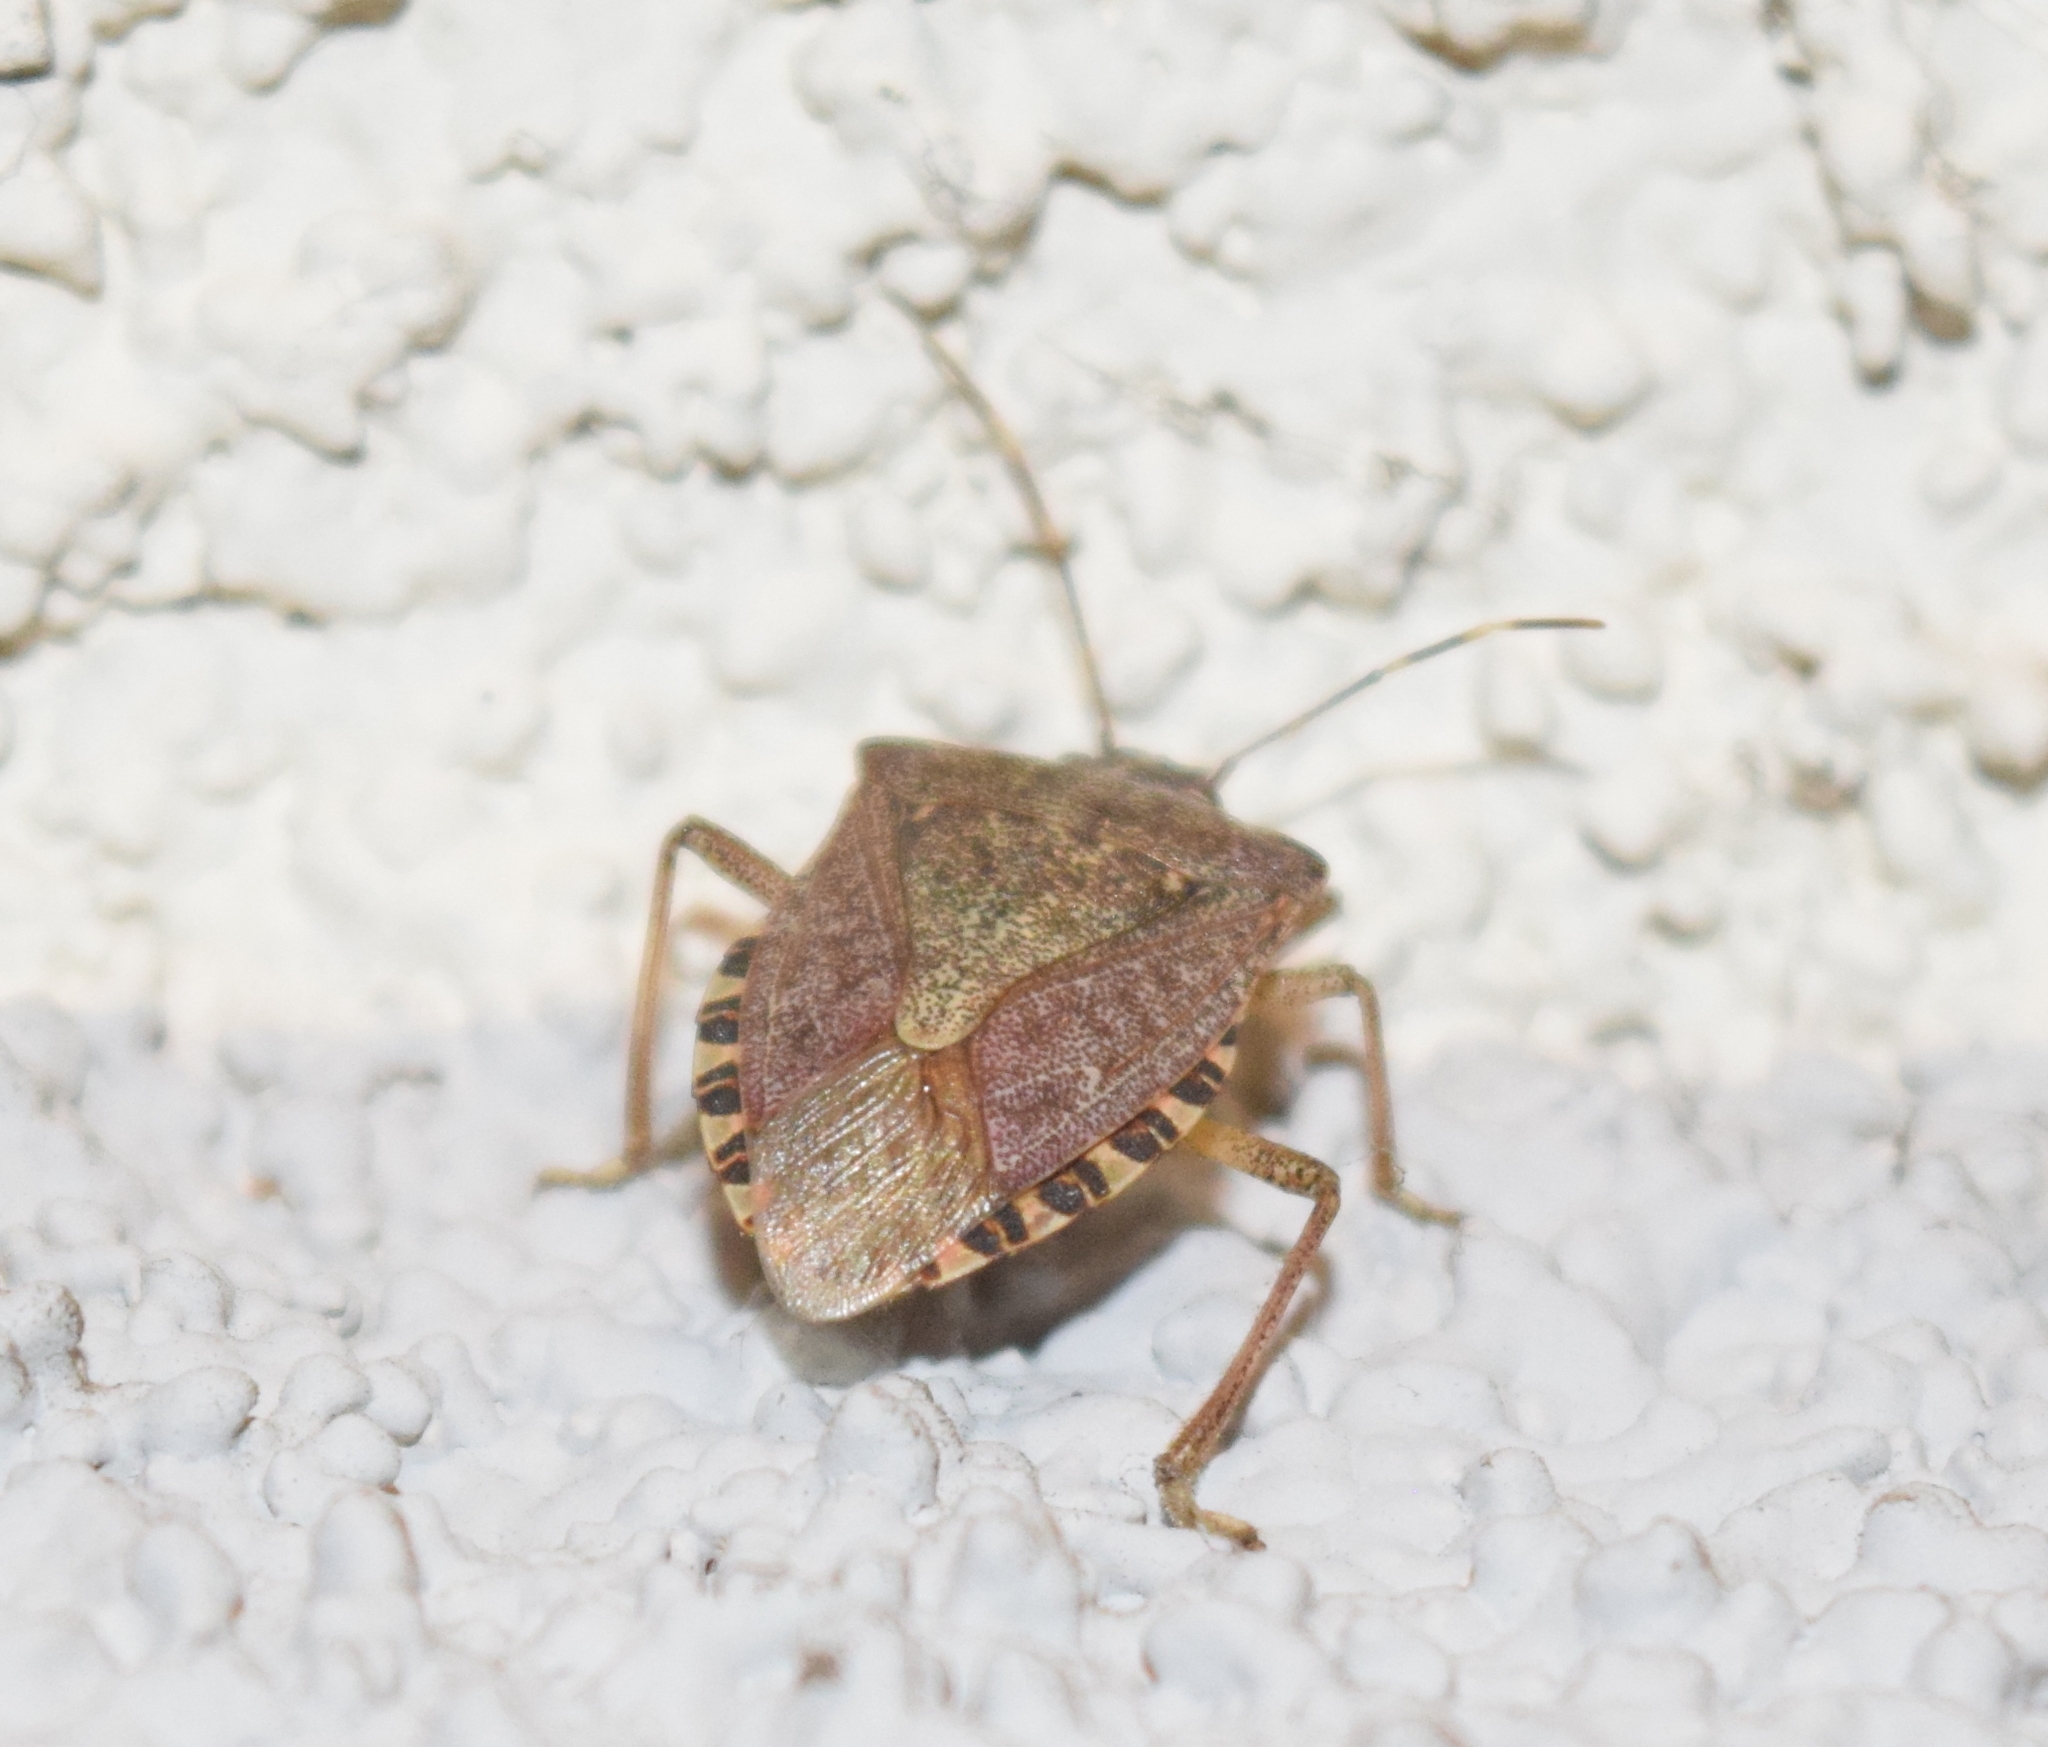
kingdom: Animalia
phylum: Arthropoda
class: Insecta
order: Hemiptera
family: Pentatomidae
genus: Halyomorpha
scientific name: Halyomorpha halys
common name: Brown marmorated stink bug
